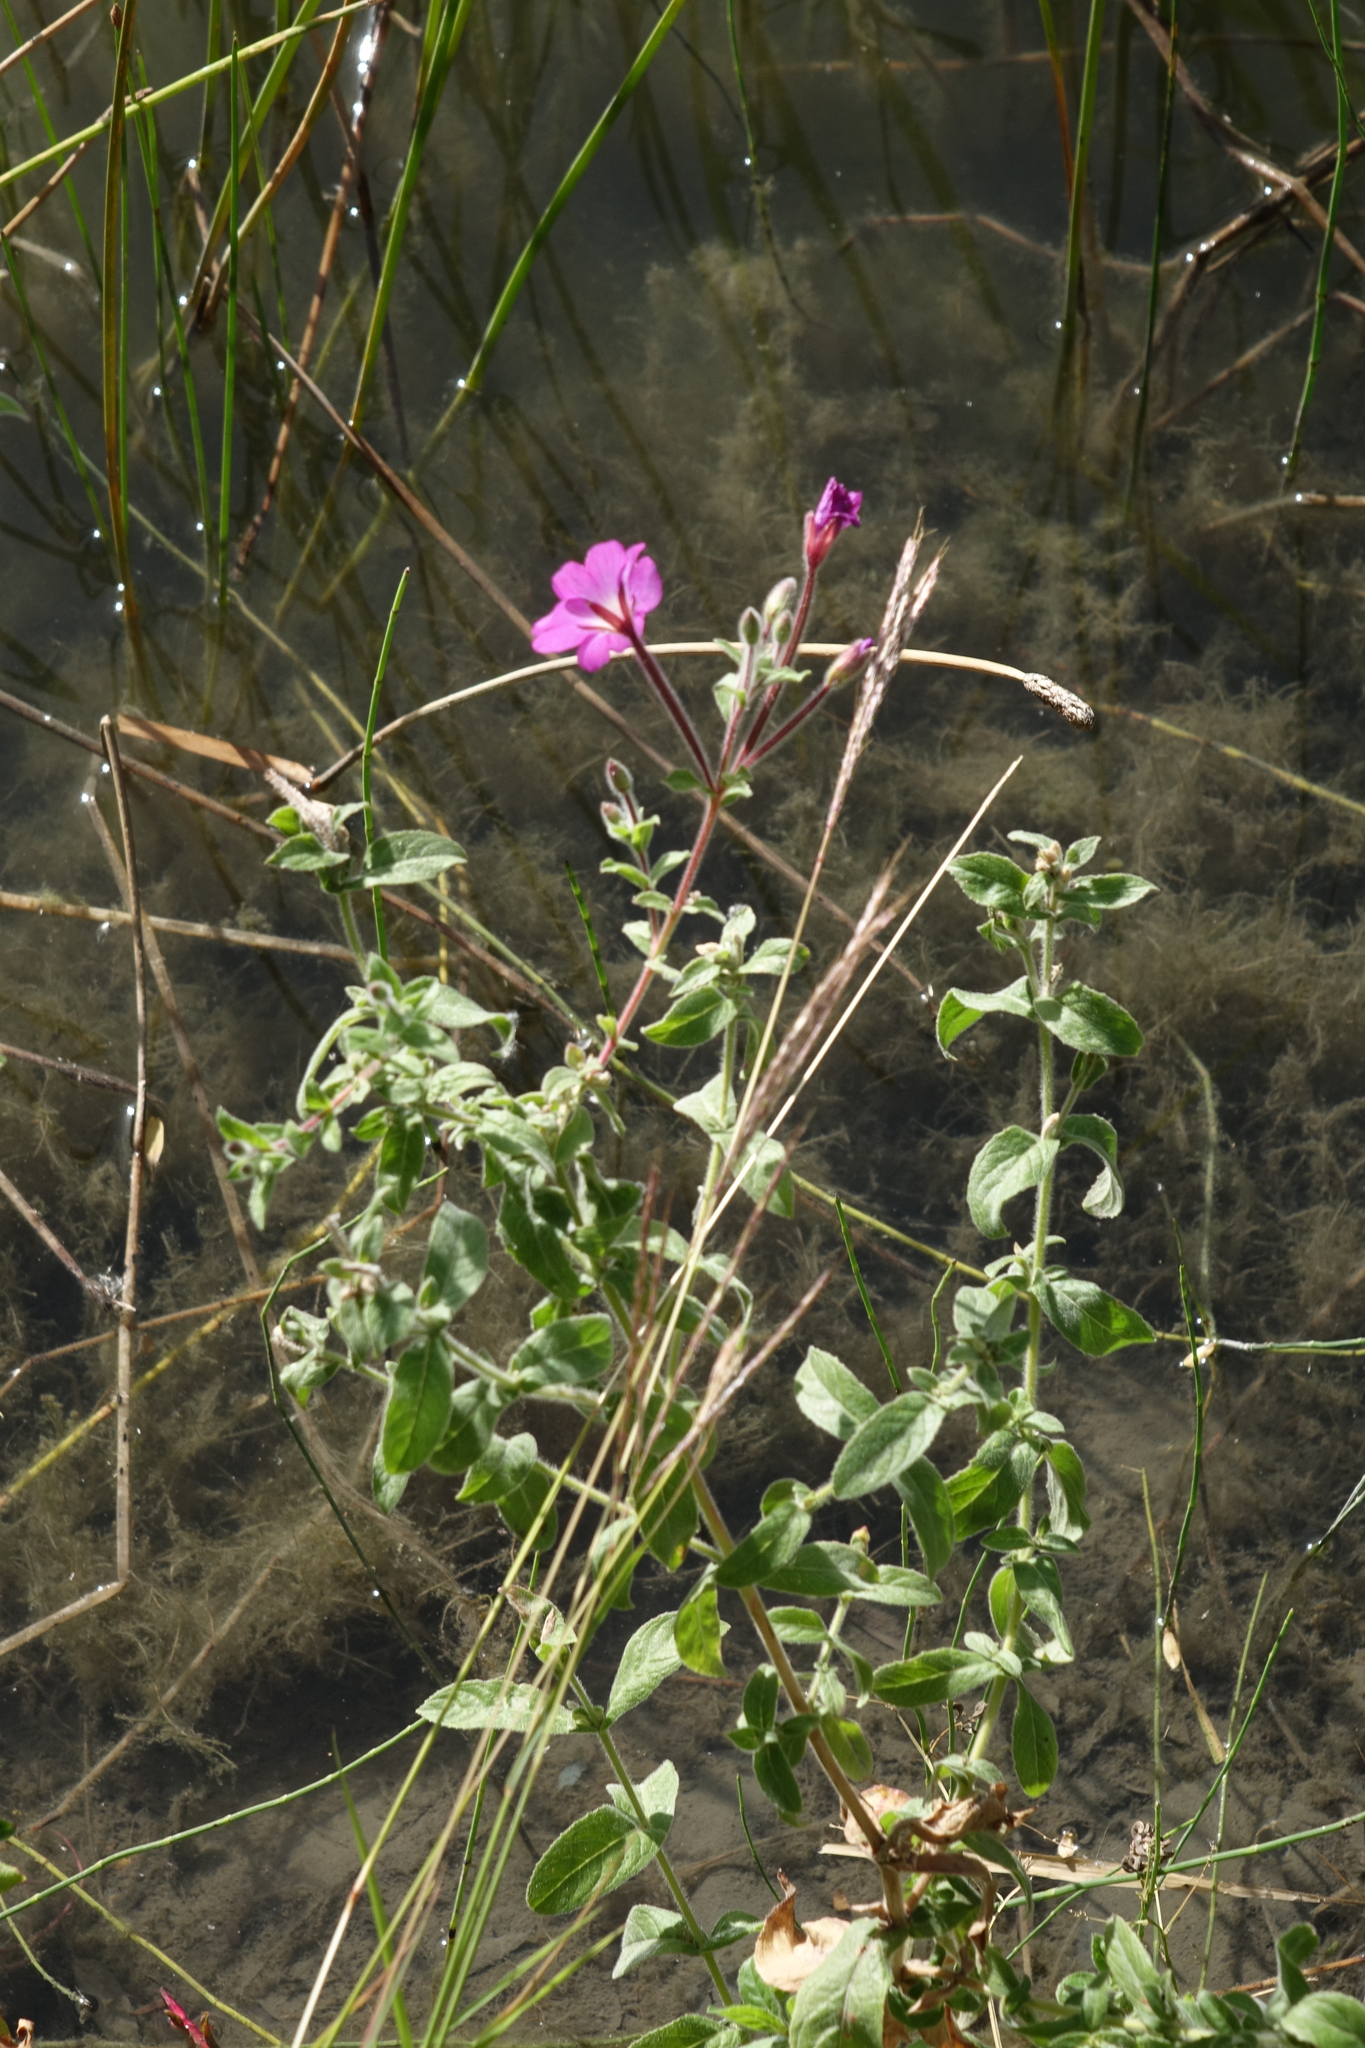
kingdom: Plantae
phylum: Tracheophyta
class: Magnoliopsida
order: Myrtales
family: Onagraceae
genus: Epilobium
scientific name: Epilobium hirsutum
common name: Great willowherb
